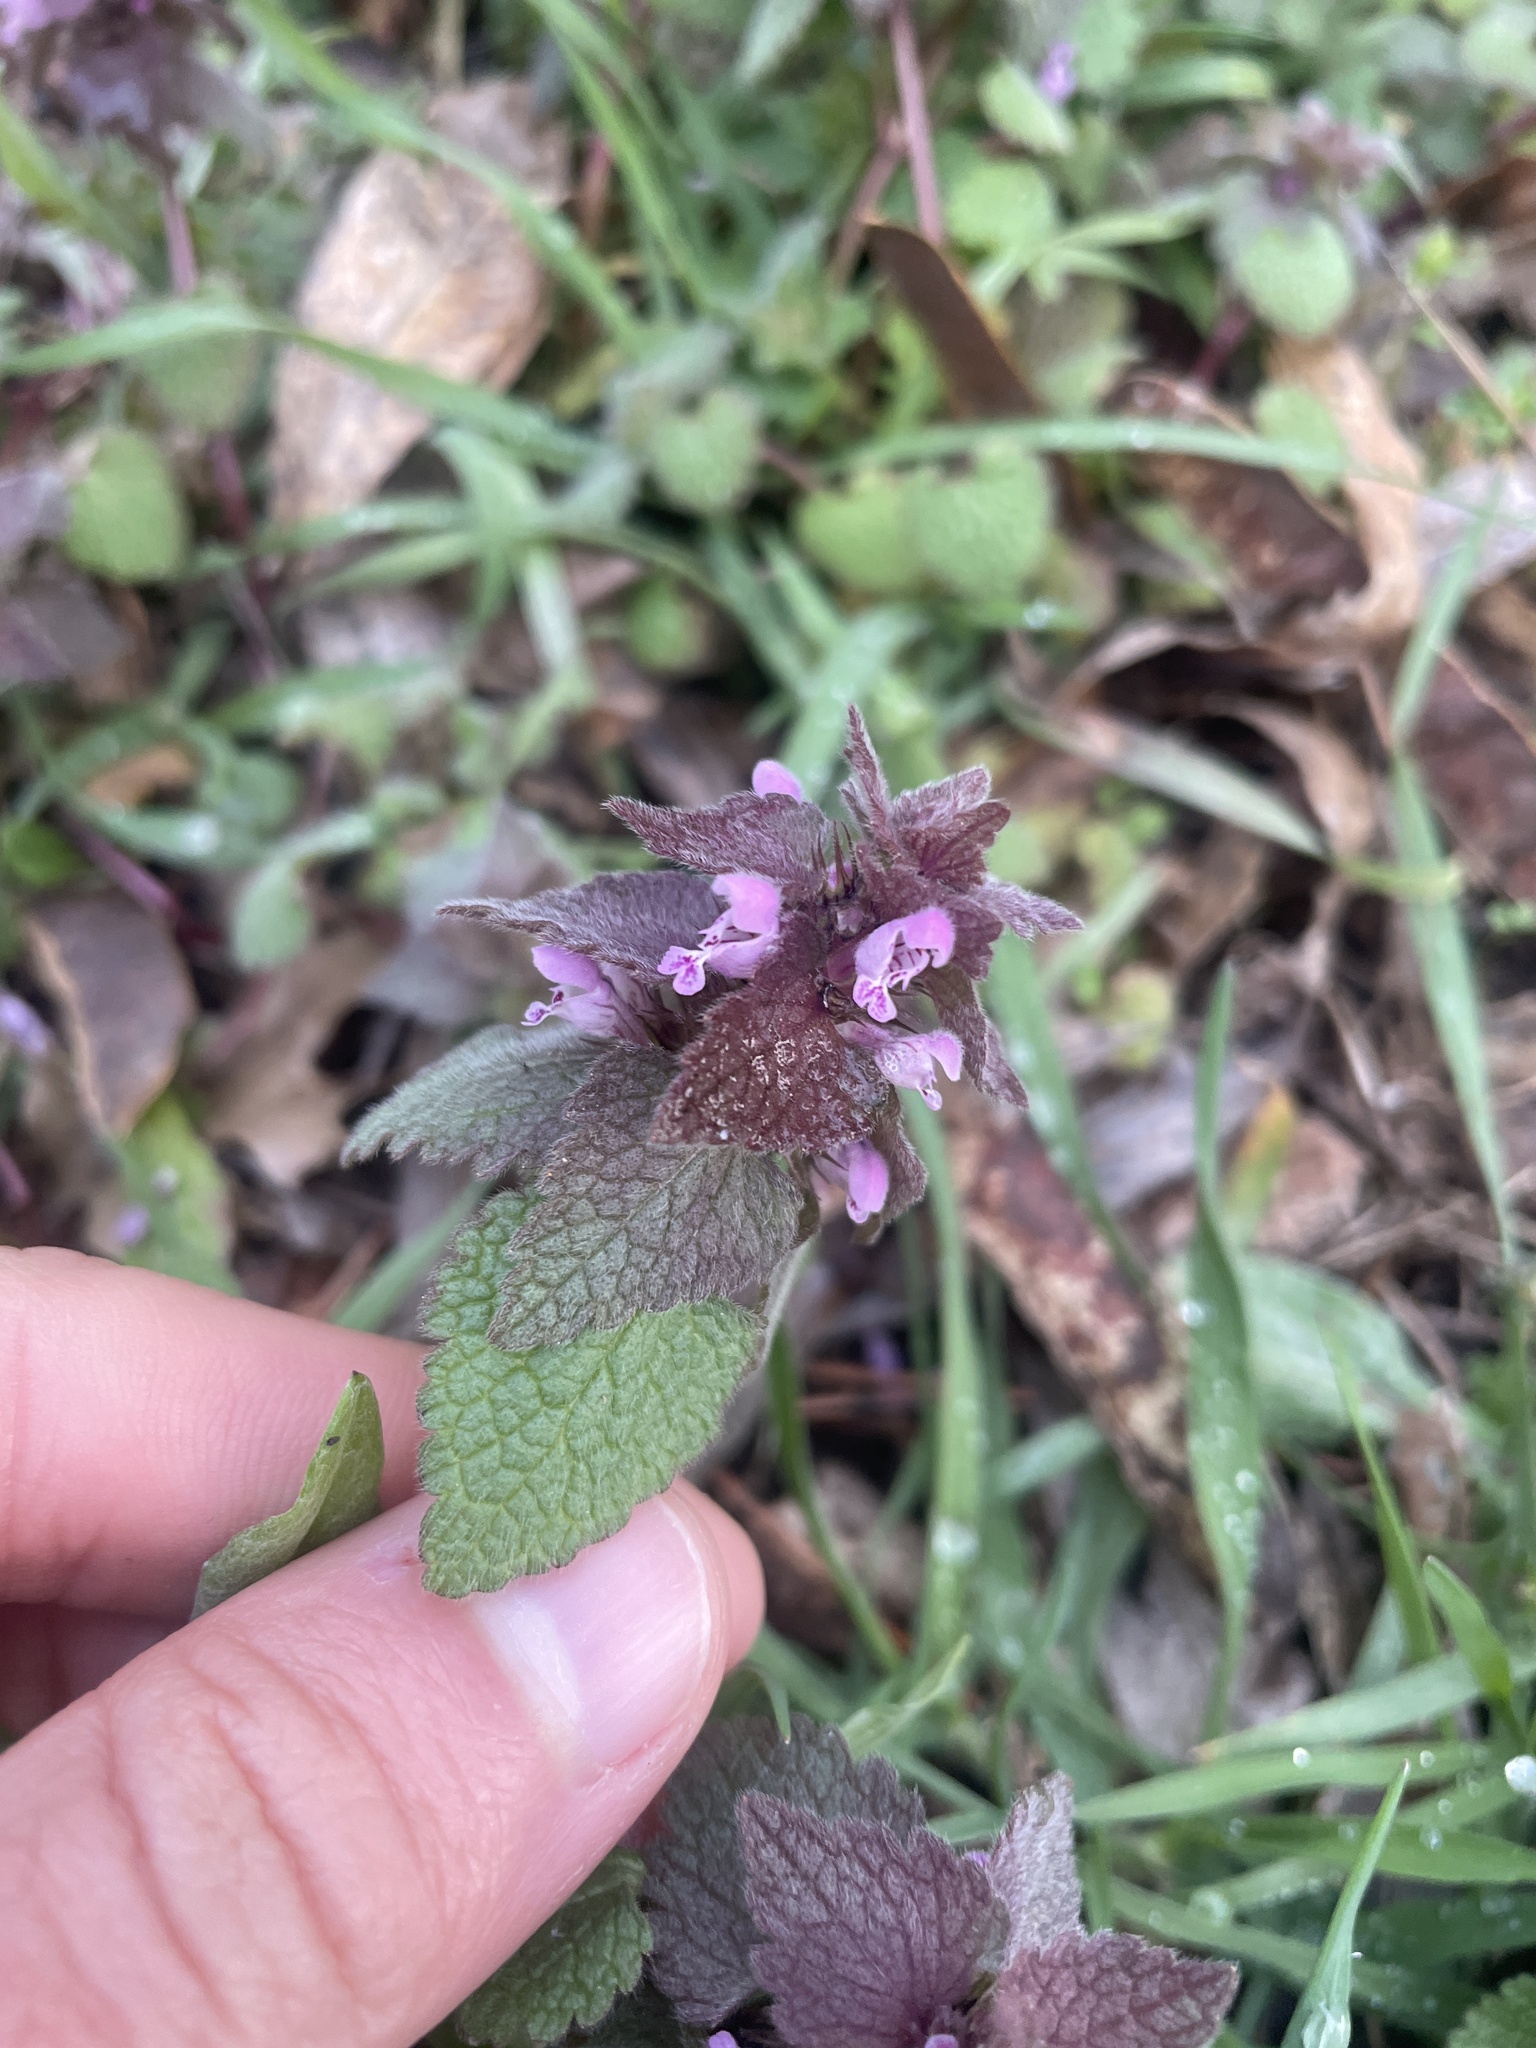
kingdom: Plantae
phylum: Tracheophyta
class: Magnoliopsida
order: Lamiales
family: Lamiaceae
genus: Lamium
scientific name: Lamium purpureum
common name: Red dead-nettle
